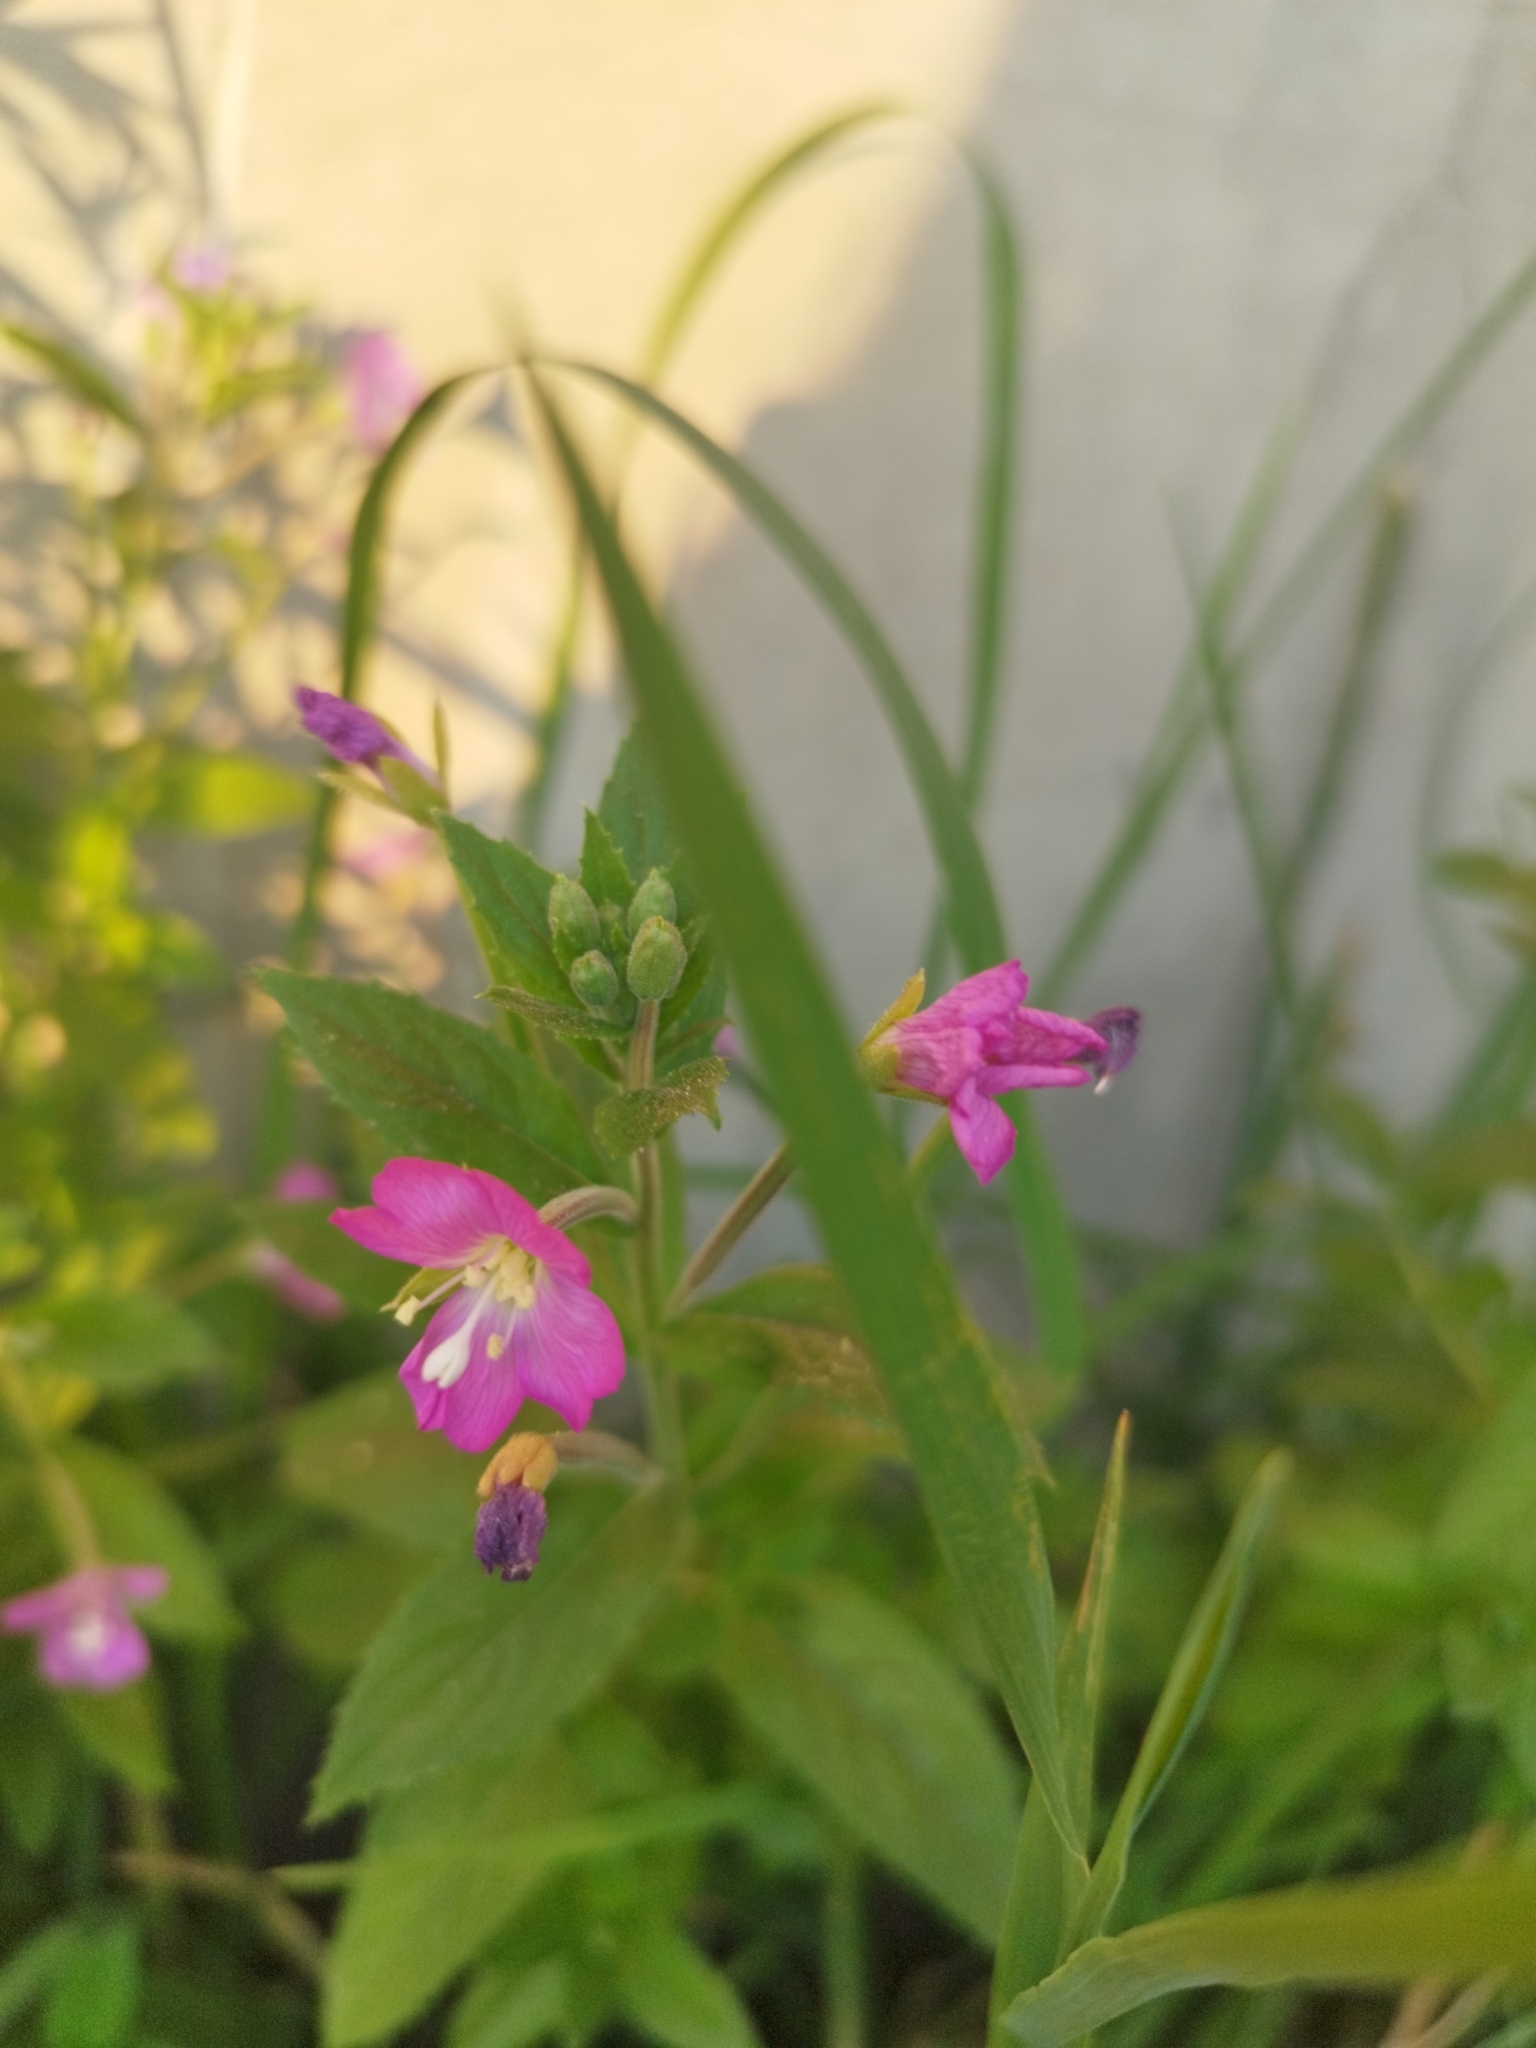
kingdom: Plantae
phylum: Tracheophyta
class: Magnoliopsida
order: Myrtales
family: Onagraceae
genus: Epilobium
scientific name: Epilobium hirsutum
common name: Great willowherb
